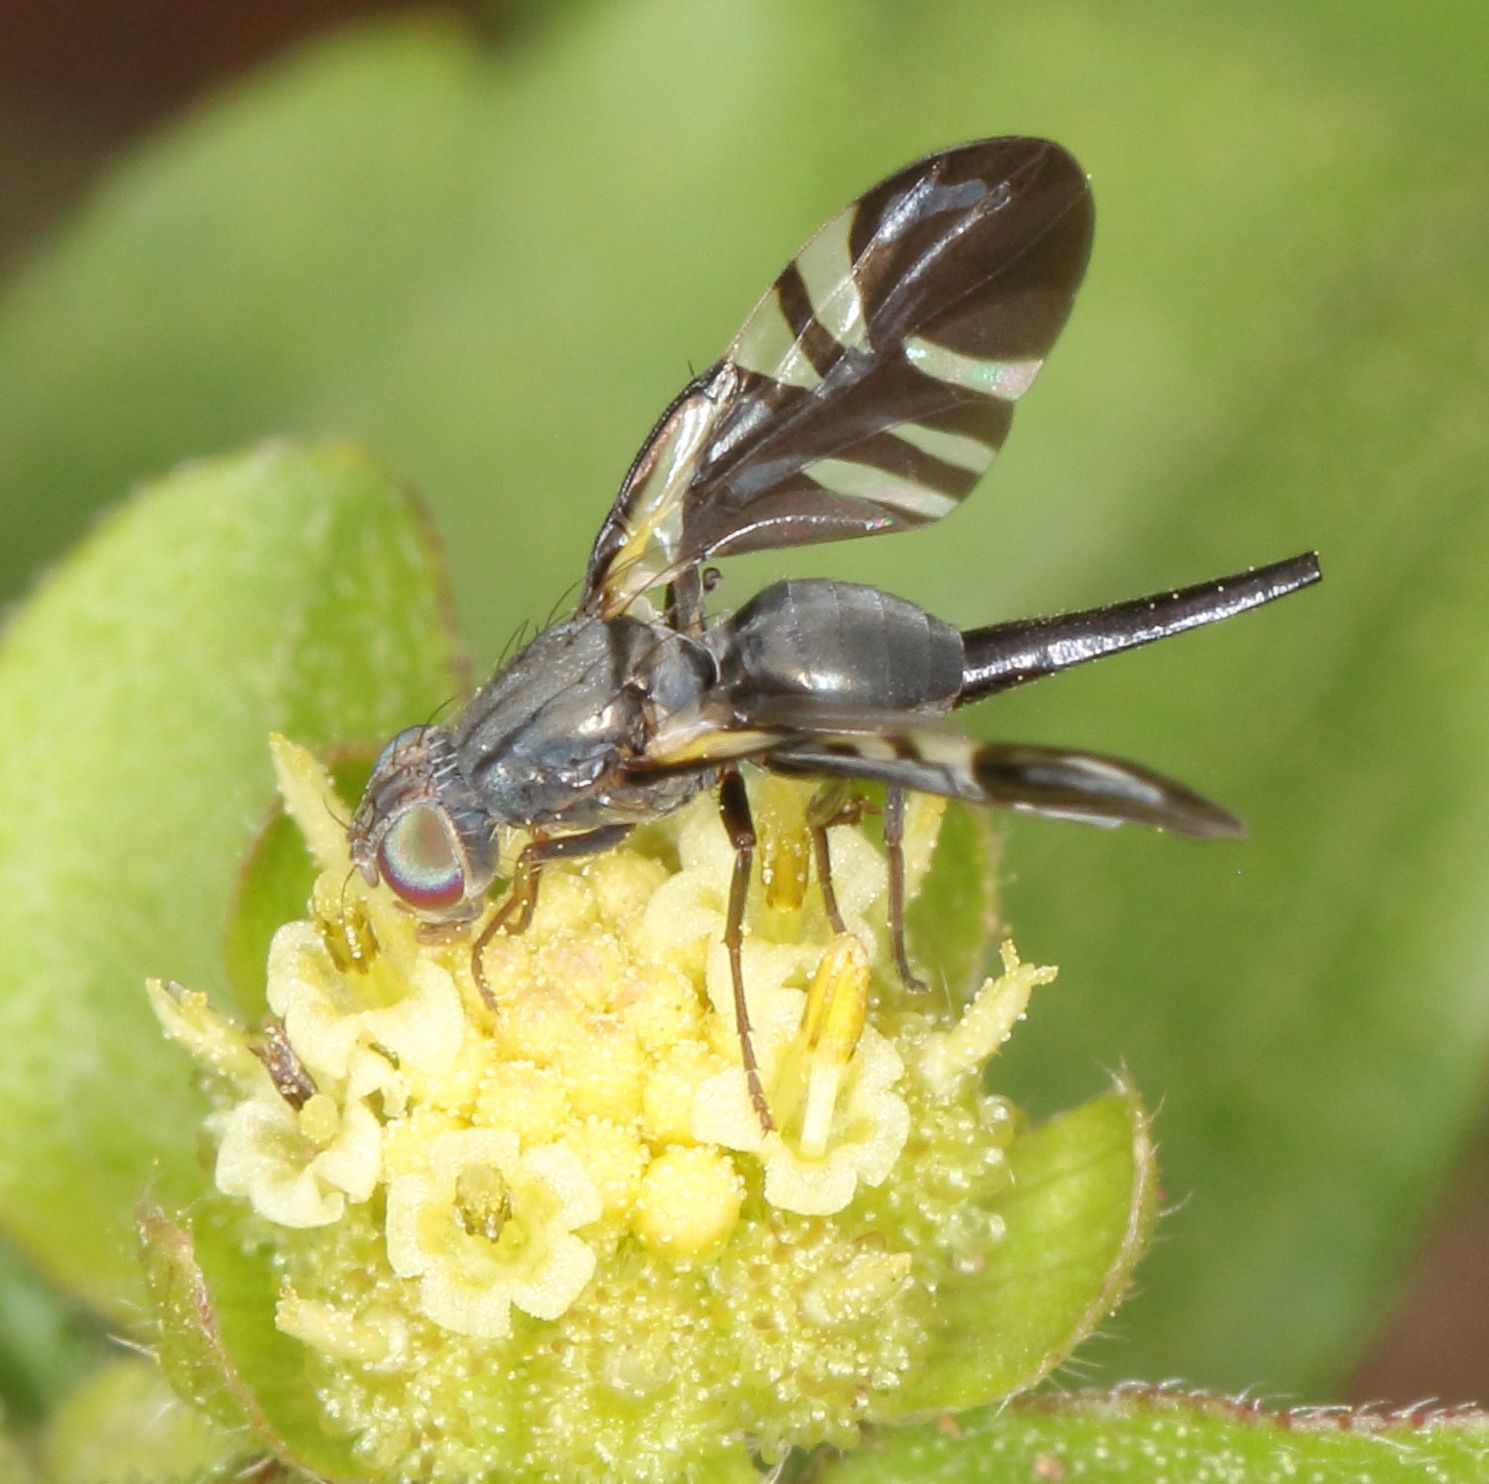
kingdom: Animalia
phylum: Arthropoda
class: Insecta
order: Diptera
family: Tephritidae
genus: Metasphenisca
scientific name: Metasphenisca tetrachaeta
